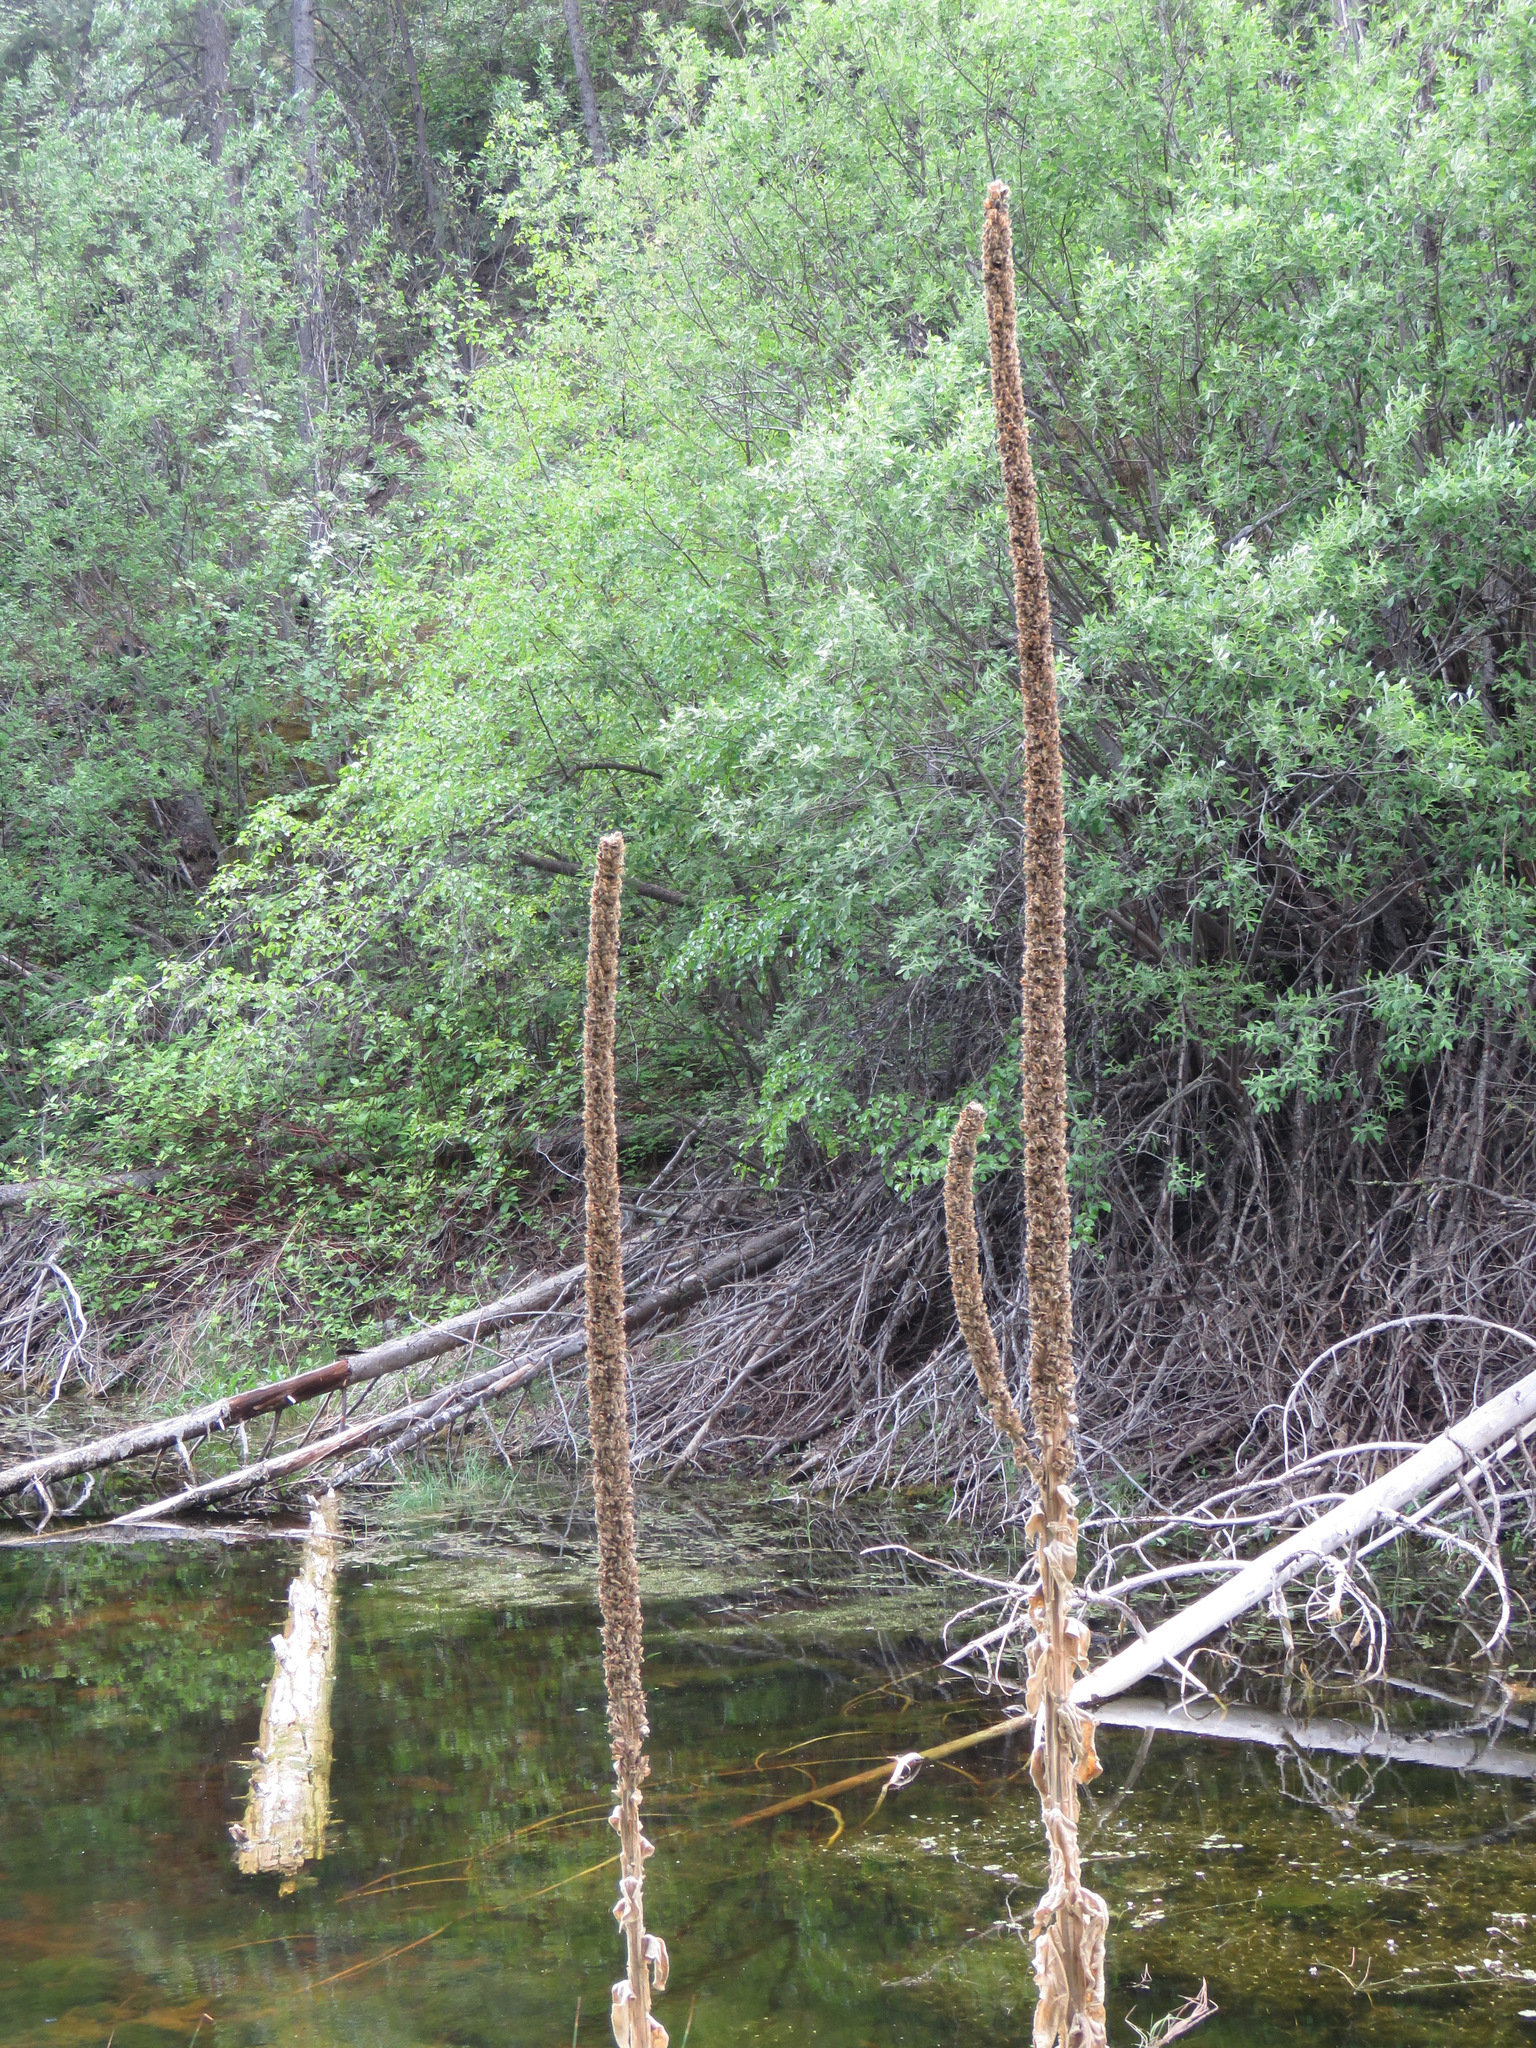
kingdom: Plantae
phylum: Tracheophyta
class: Magnoliopsida
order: Lamiales
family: Scrophulariaceae
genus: Verbascum
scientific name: Verbascum thapsus
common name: Common mullein
